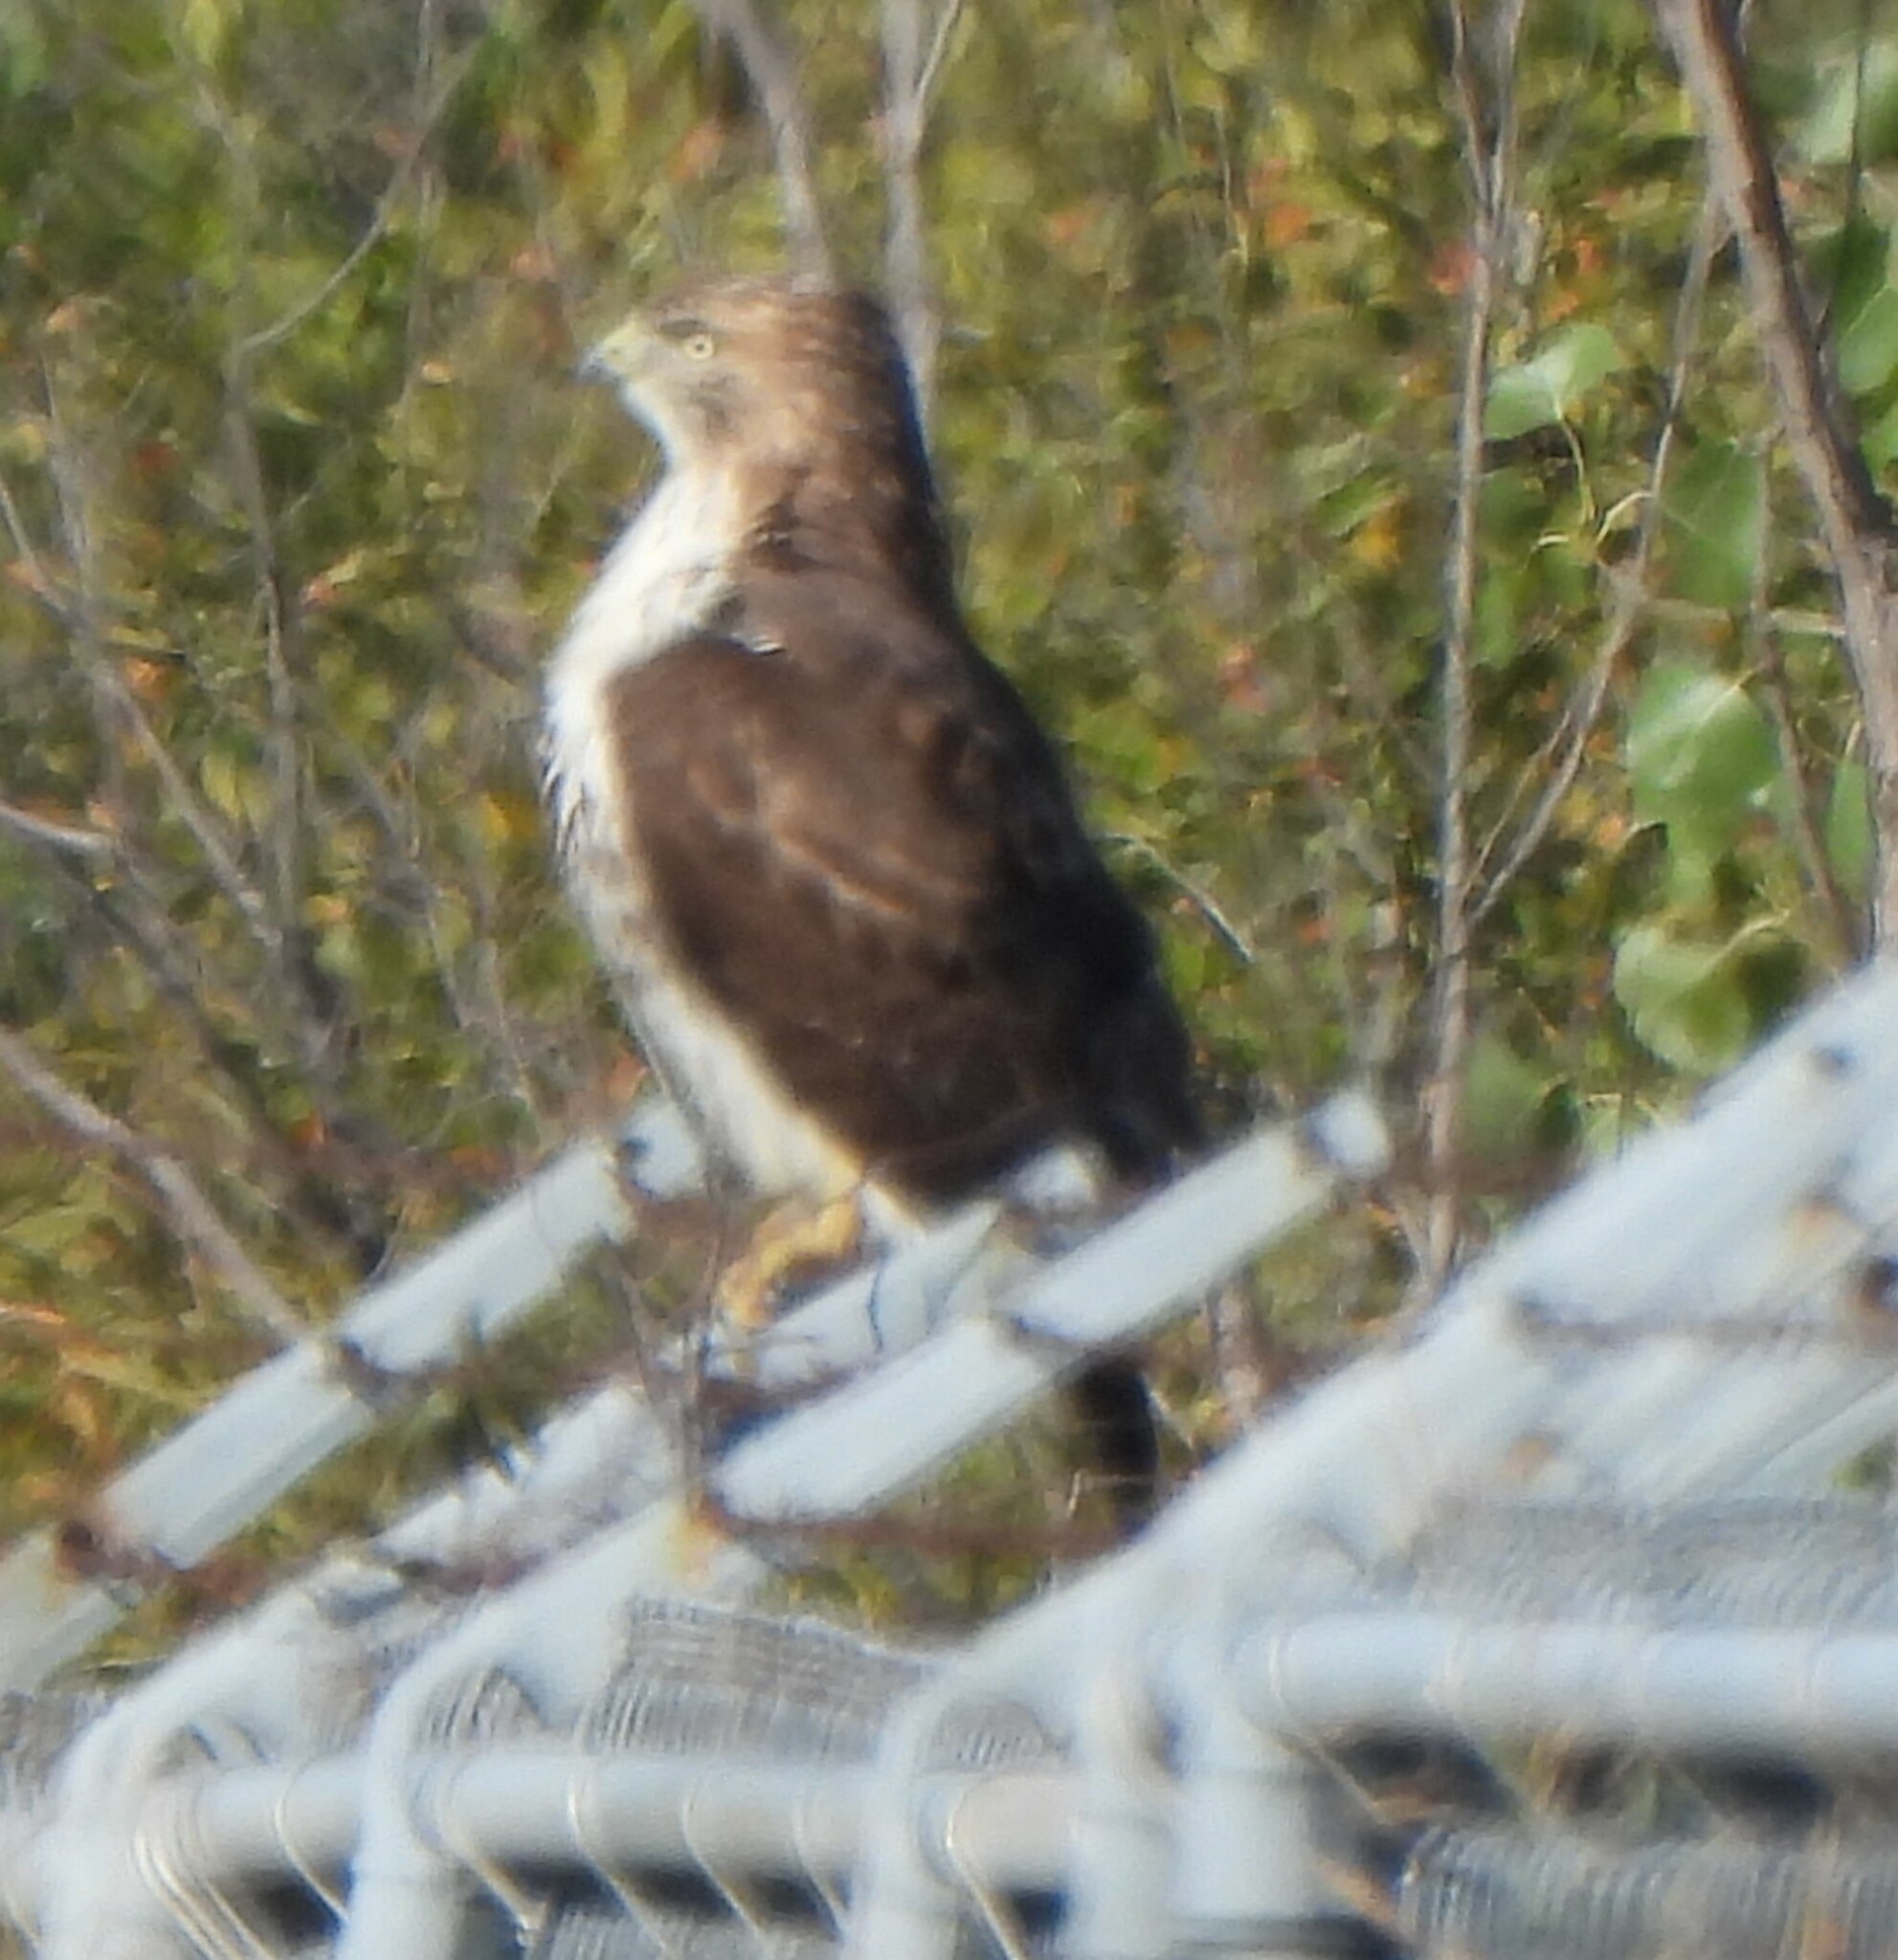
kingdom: Animalia
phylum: Chordata
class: Aves
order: Accipitriformes
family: Accipitridae
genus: Buteo
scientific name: Buteo jamaicensis
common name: Red-tailed hawk
